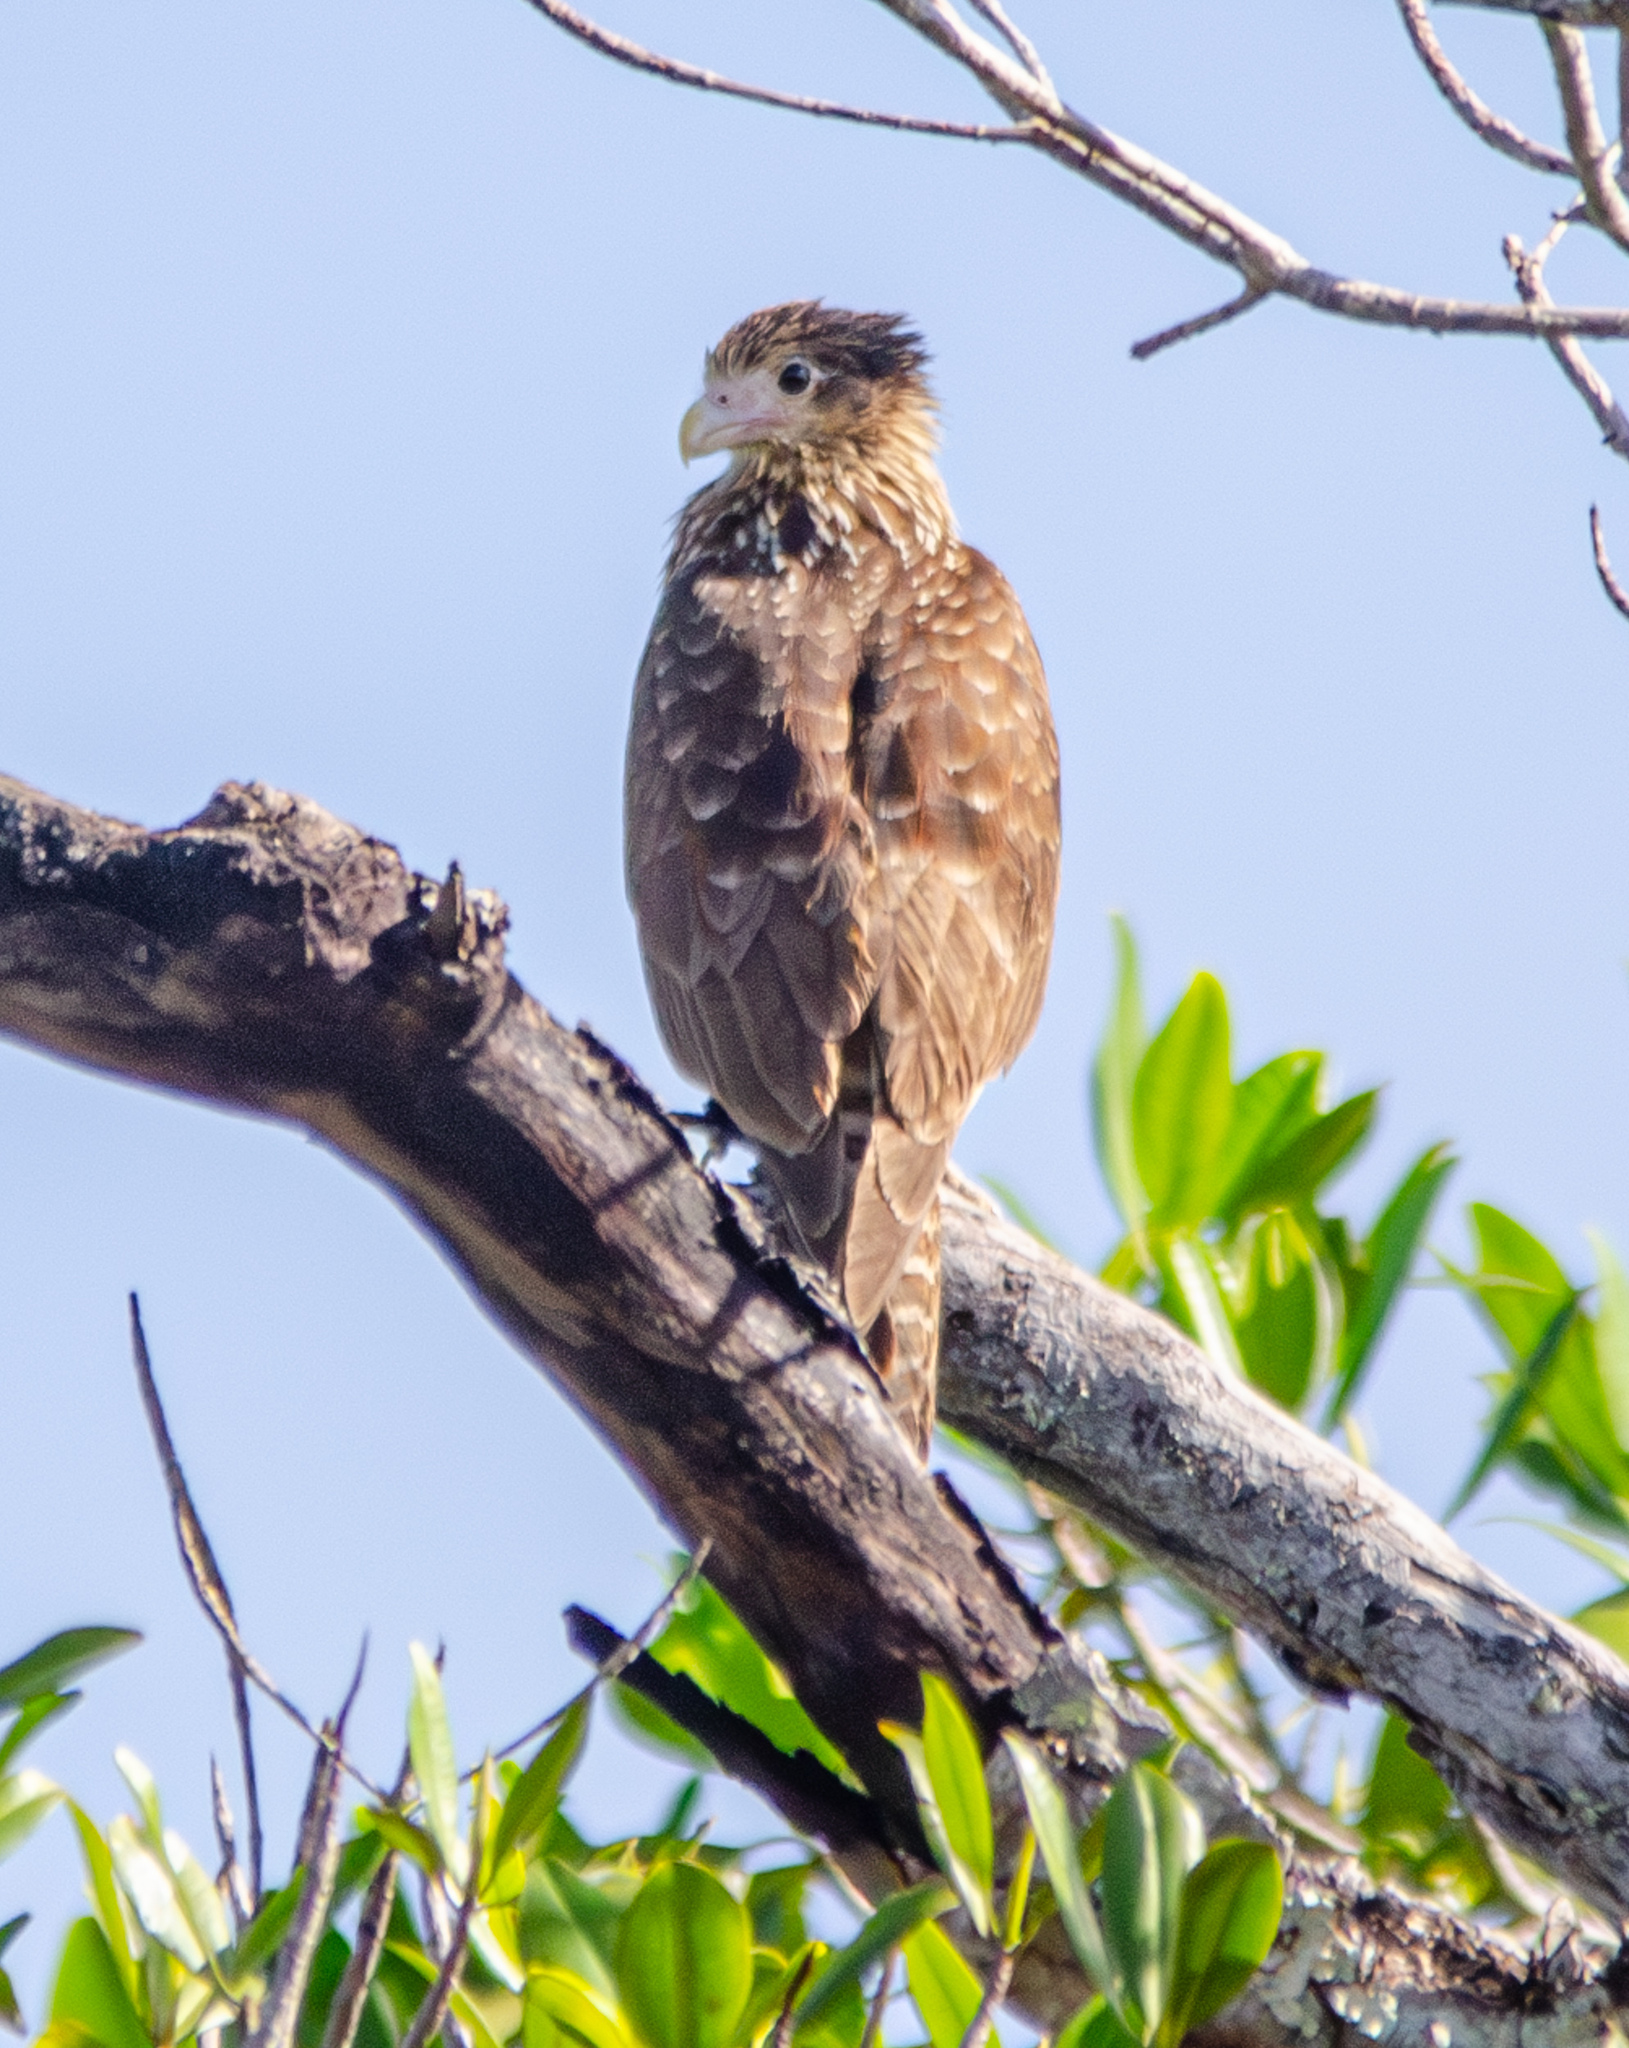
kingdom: Animalia
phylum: Chordata
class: Aves
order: Falconiformes
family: Falconidae
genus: Daptrius
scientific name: Daptrius
